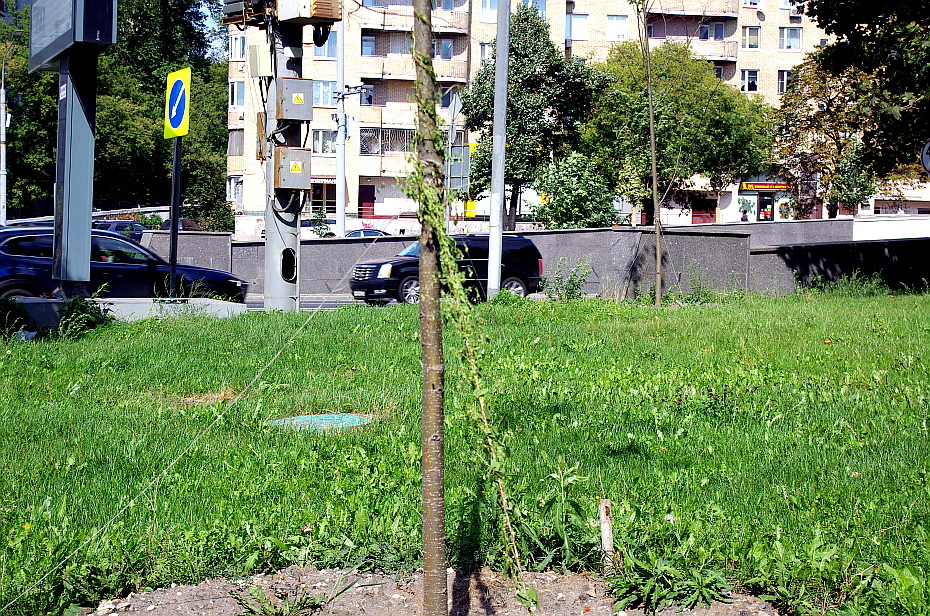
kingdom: Plantae
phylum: Tracheophyta
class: Magnoliopsida
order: Caryophyllales
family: Polygonaceae
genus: Fallopia
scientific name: Fallopia dumetorum
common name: Copse-bindweed
